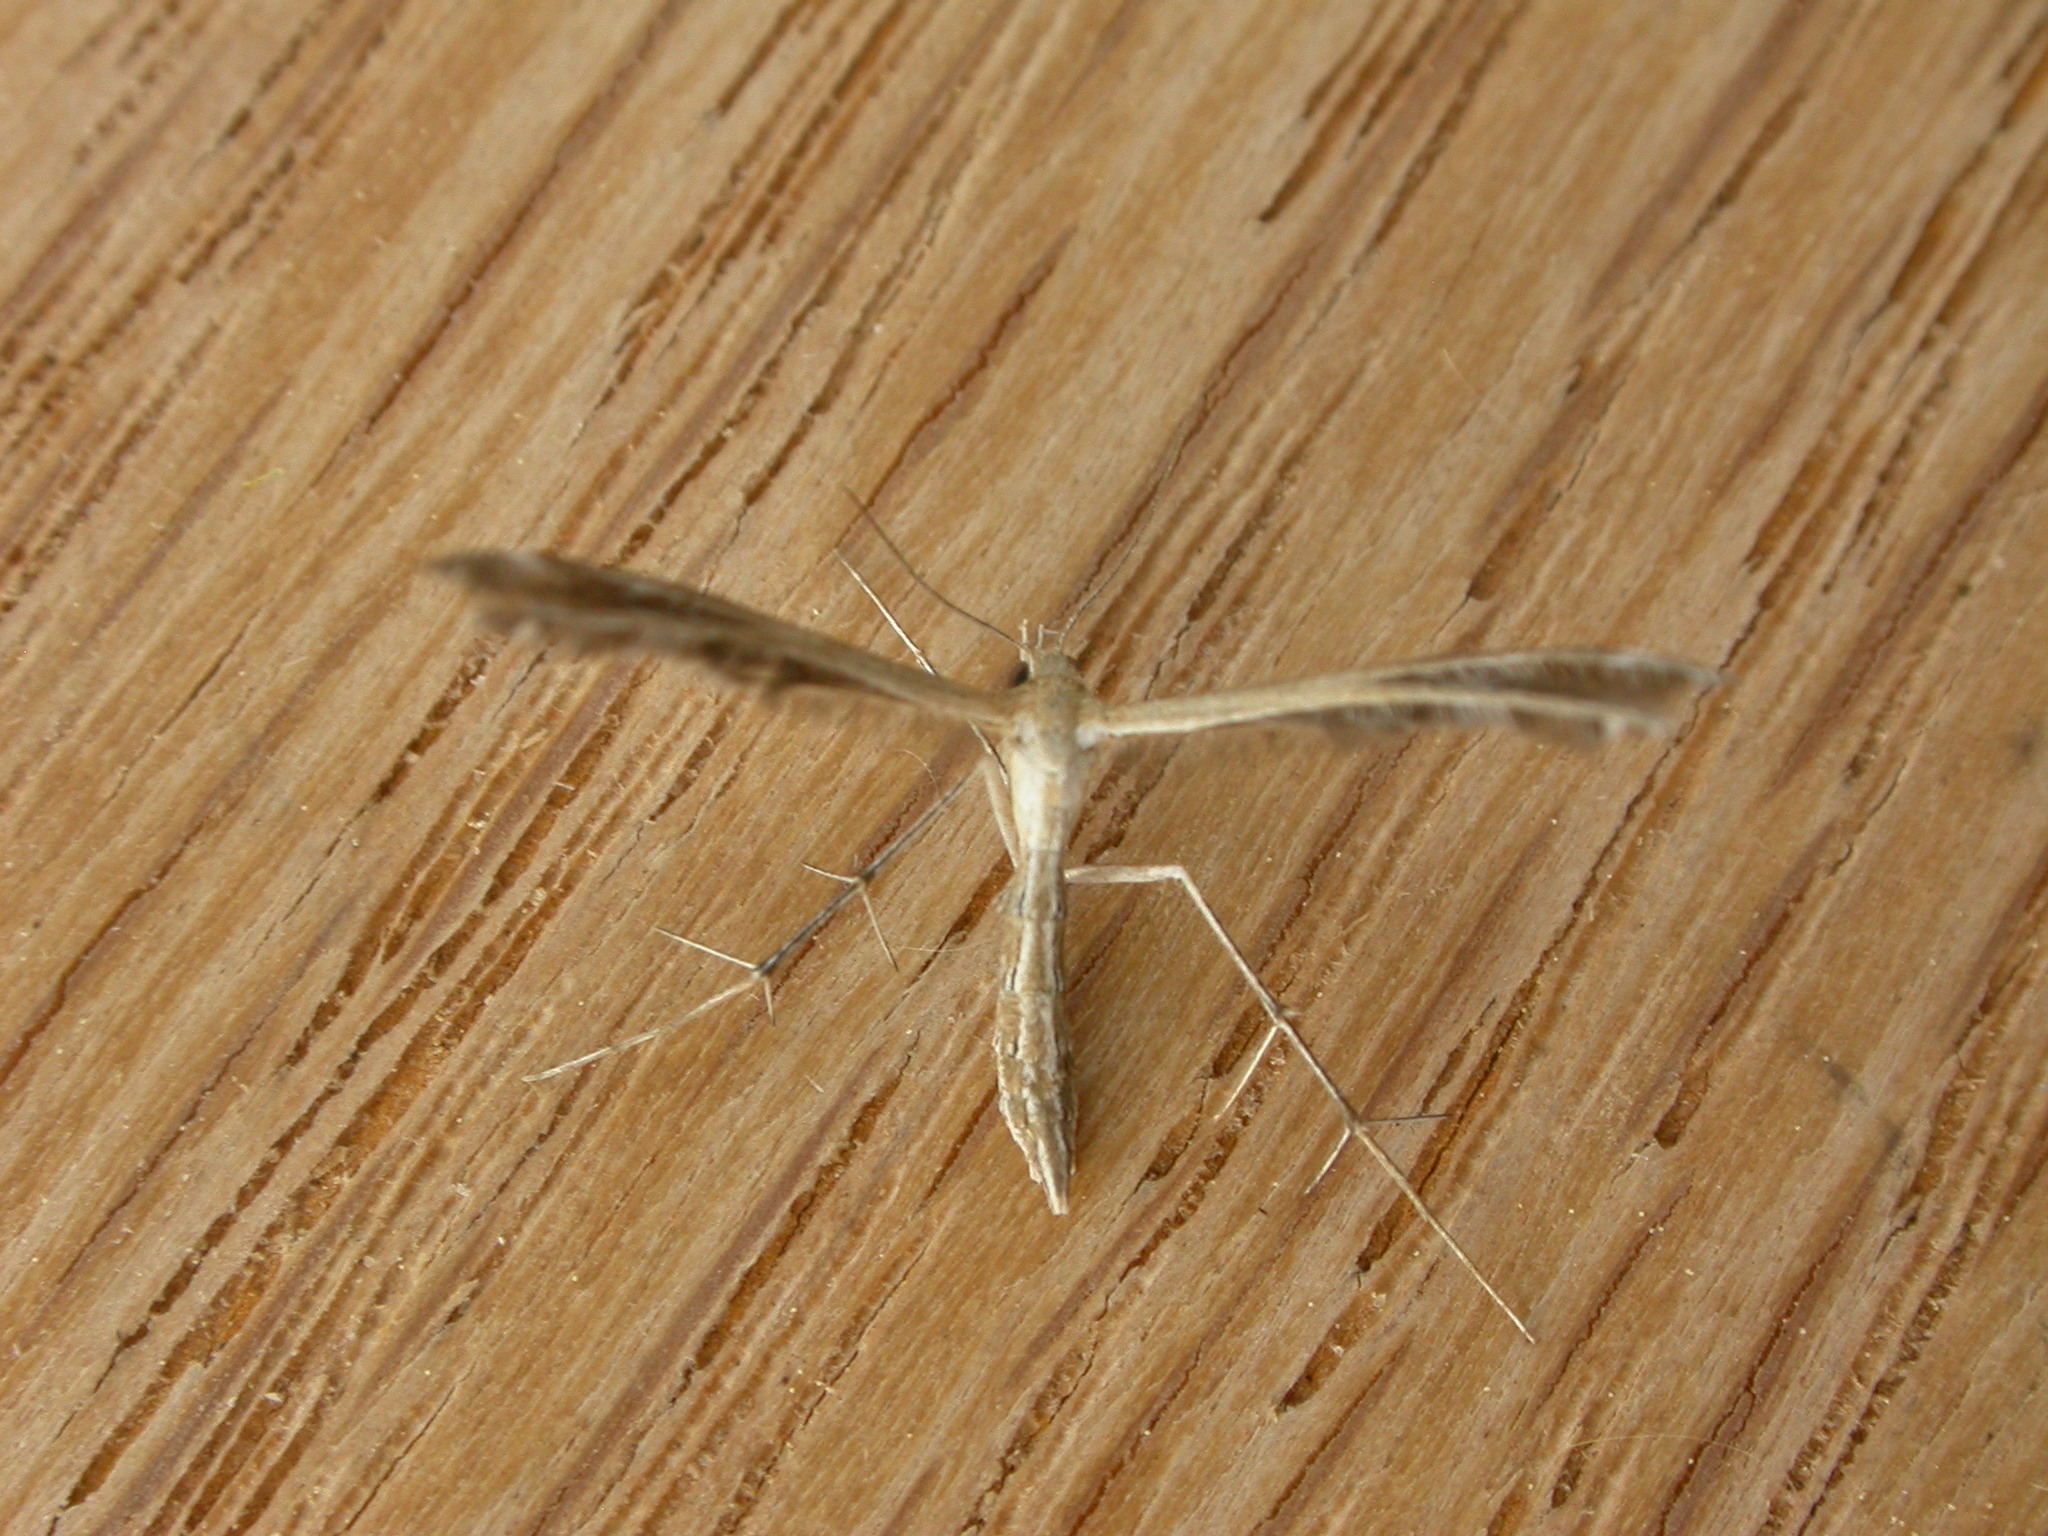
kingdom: Animalia
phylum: Arthropoda
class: Insecta
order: Lepidoptera
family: Pterophoridae
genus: Stangeia
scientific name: Stangeia xerodes
